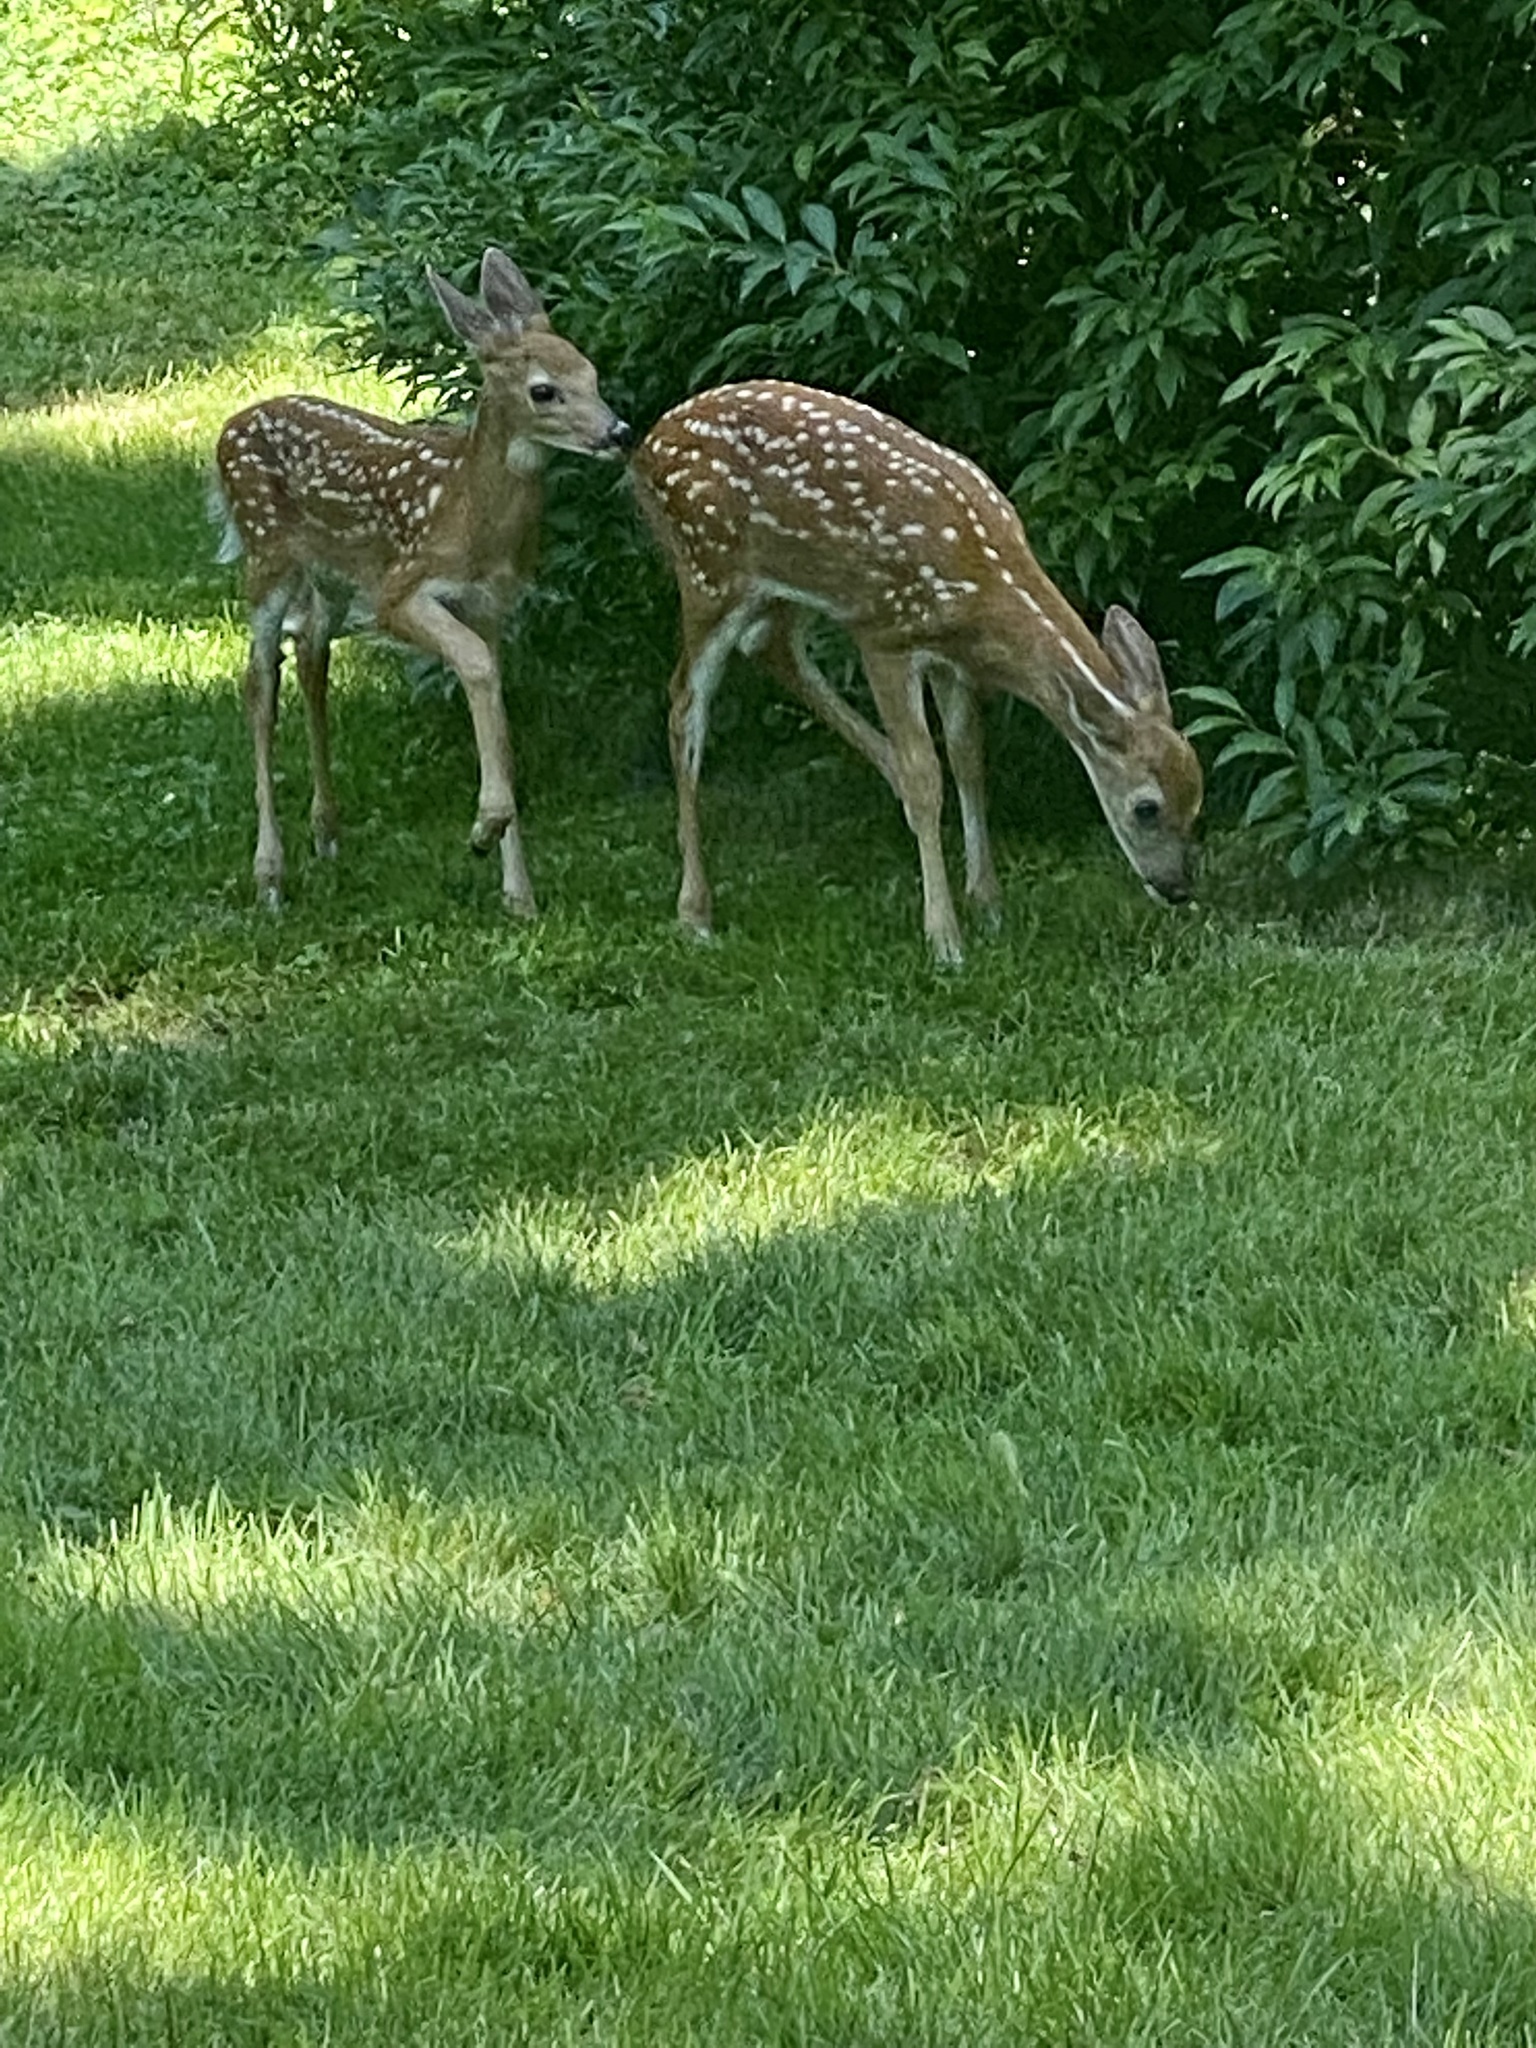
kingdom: Animalia
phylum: Chordata
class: Mammalia
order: Artiodactyla
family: Cervidae
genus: Odocoileus
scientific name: Odocoileus virginianus
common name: White-tailed deer
